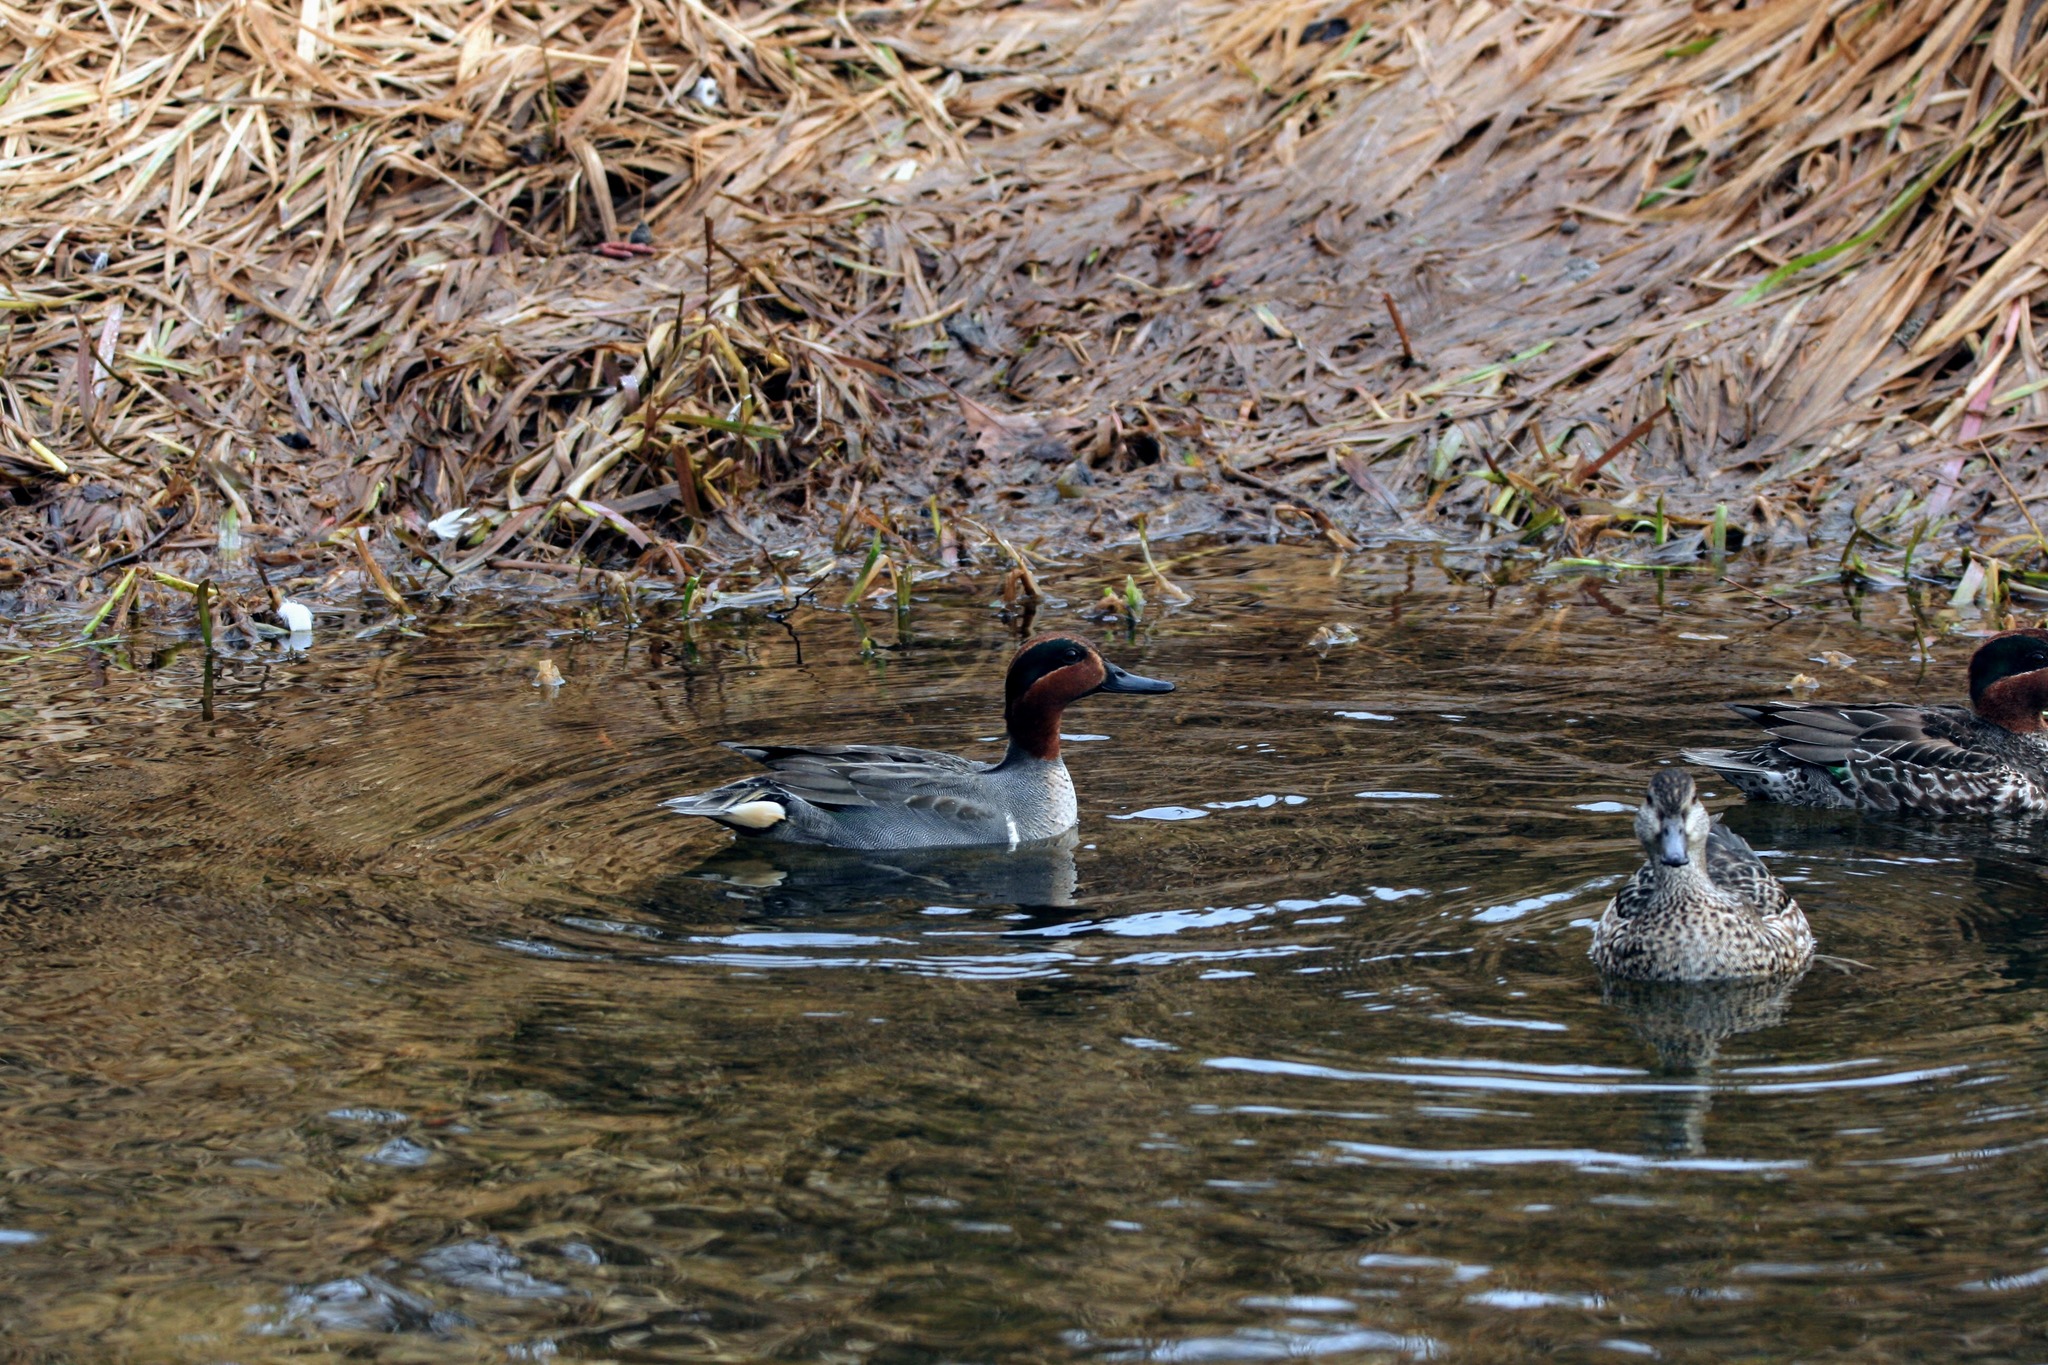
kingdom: Animalia
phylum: Chordata
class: Aves
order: Anseriformes
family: Anatidae
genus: Anas
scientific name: Anas crecca
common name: Eurasian teal
